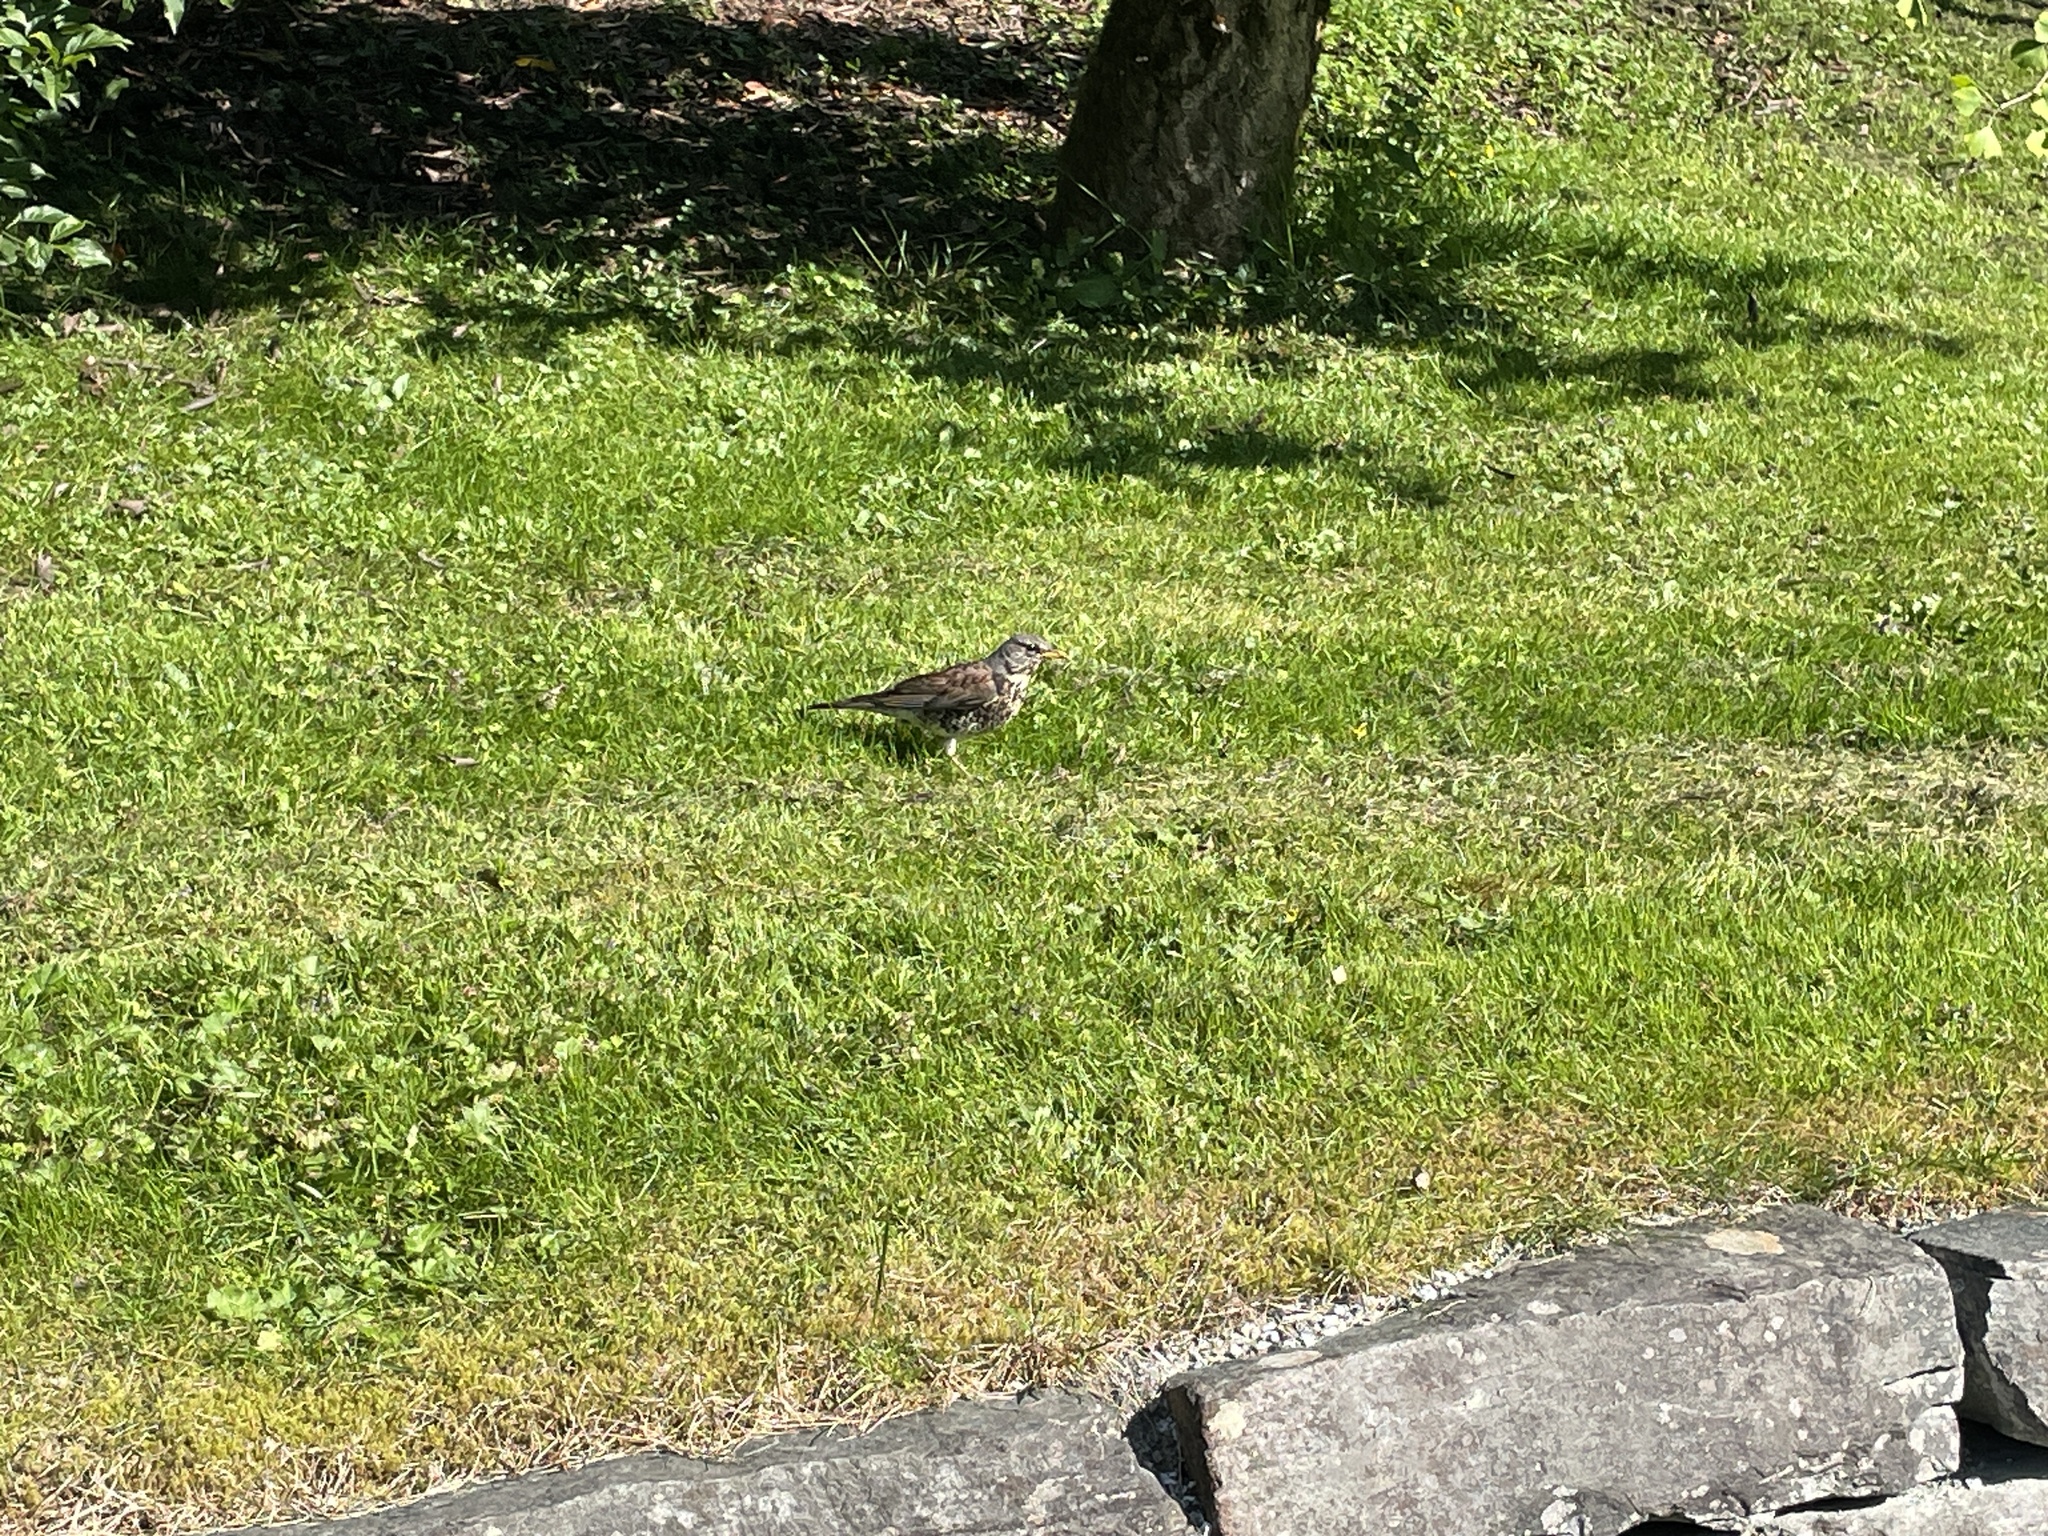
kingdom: Animalia
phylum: Chordata
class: Aves
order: Passeriformes
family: Turdidae
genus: Turdus
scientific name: Turdus pilaris
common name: Fieldfare
